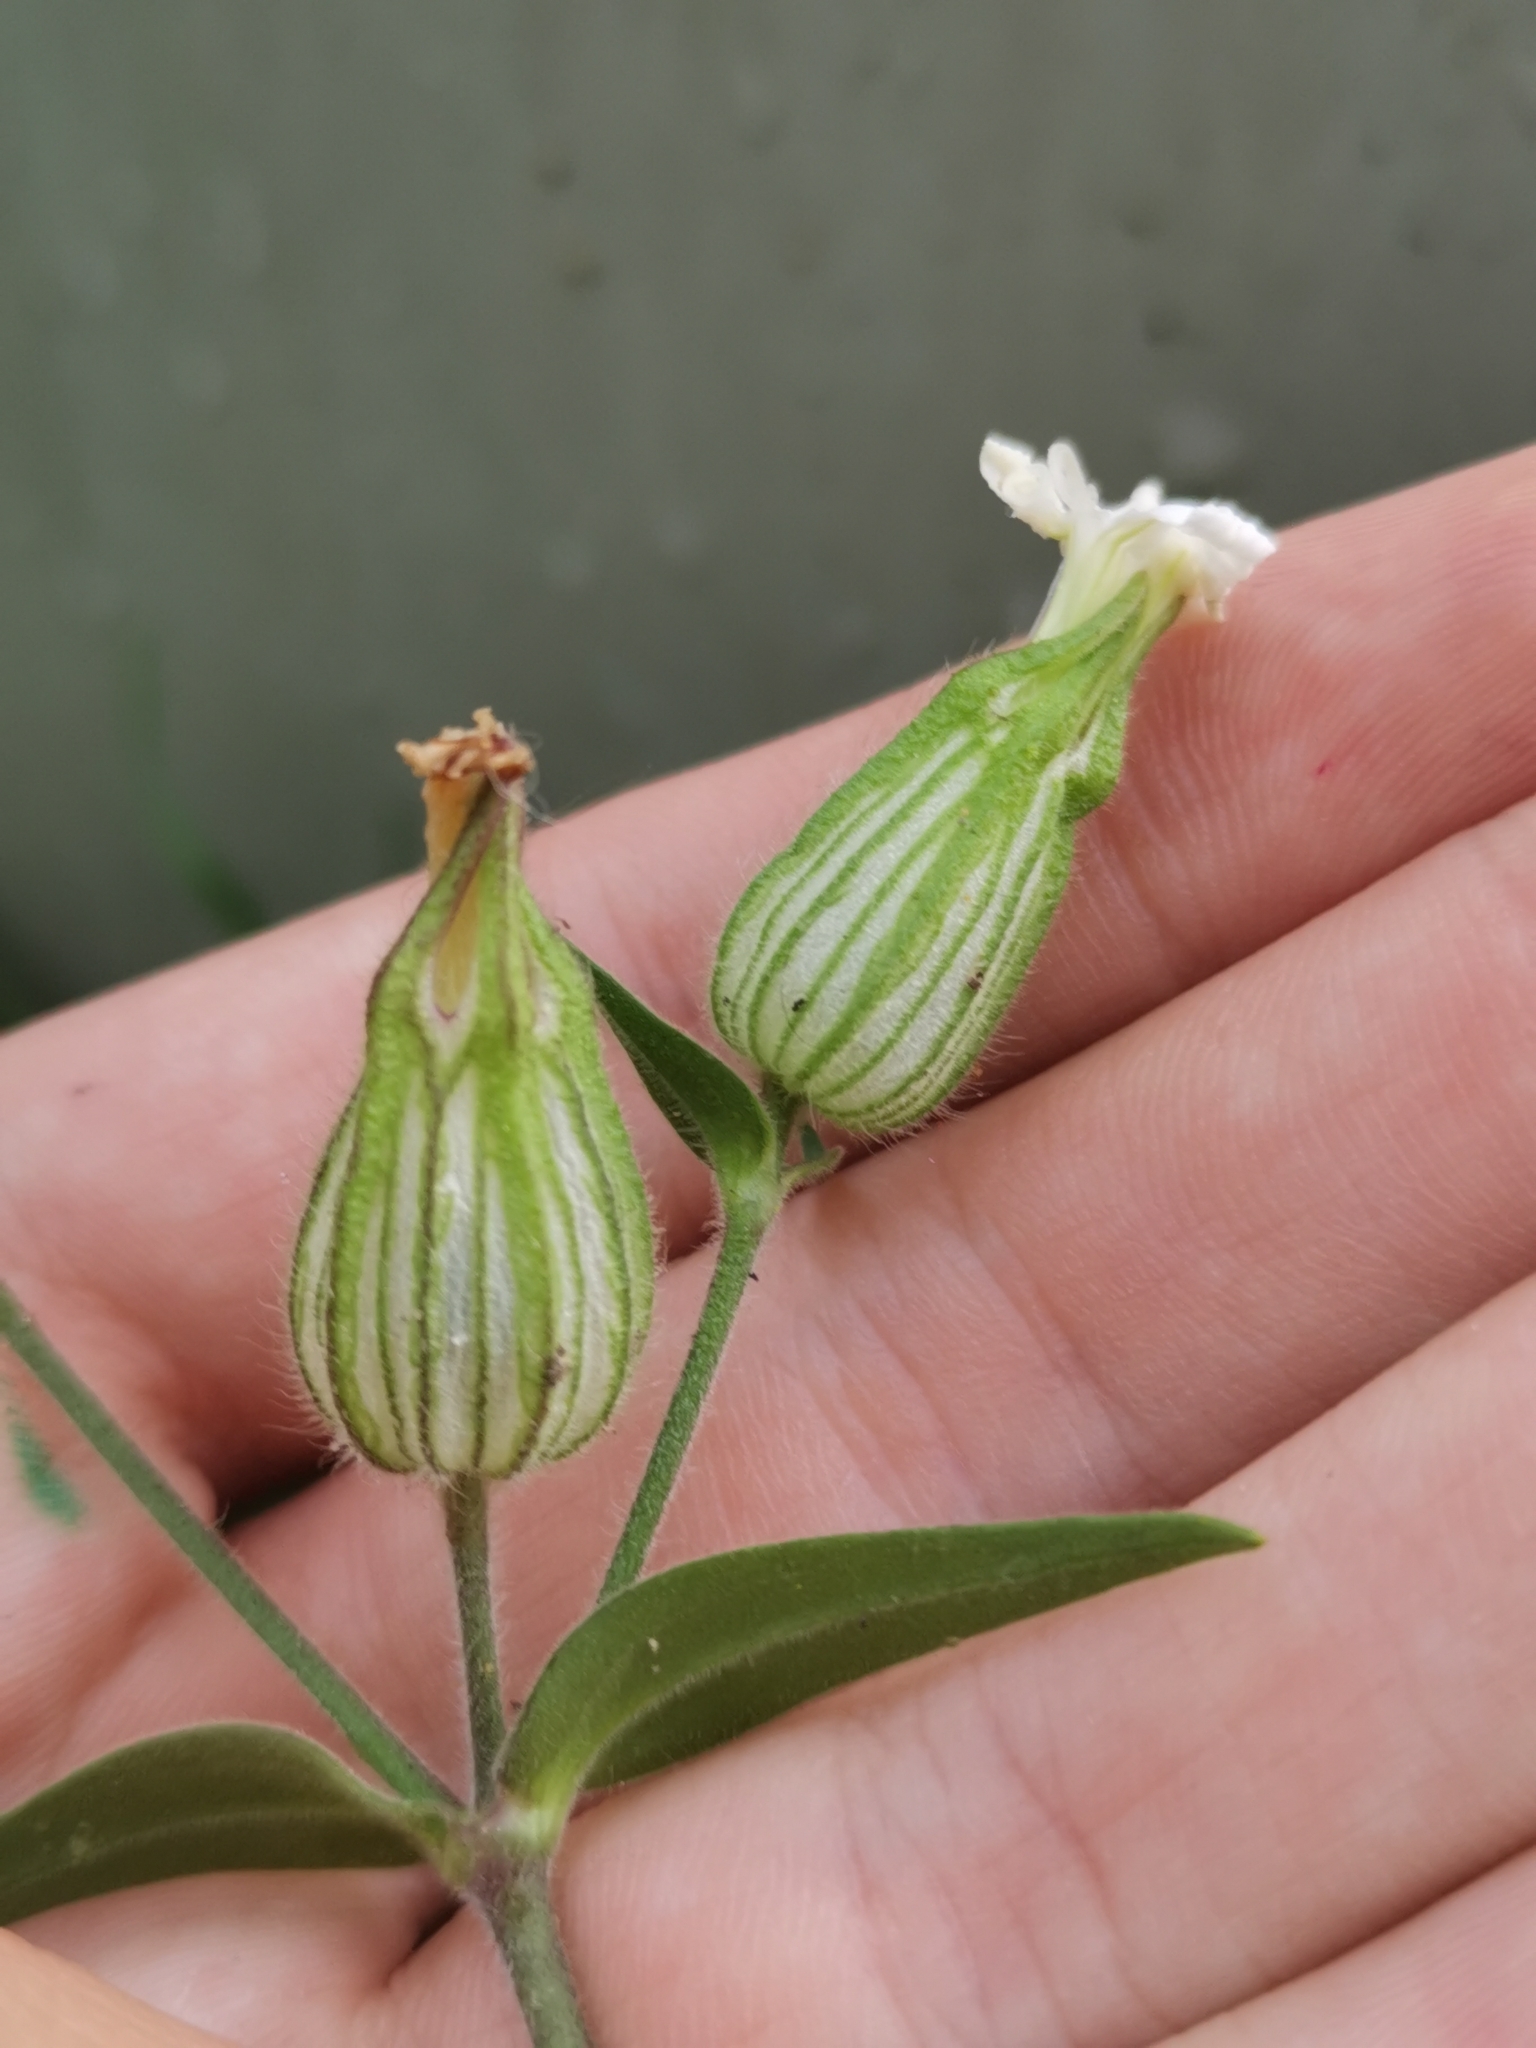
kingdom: Plantae
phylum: Tracheophyta
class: Magnoliopsida
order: Caryophyllales
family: Caryophyllaceae
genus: Silene
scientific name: Silene latifolia
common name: White campion
